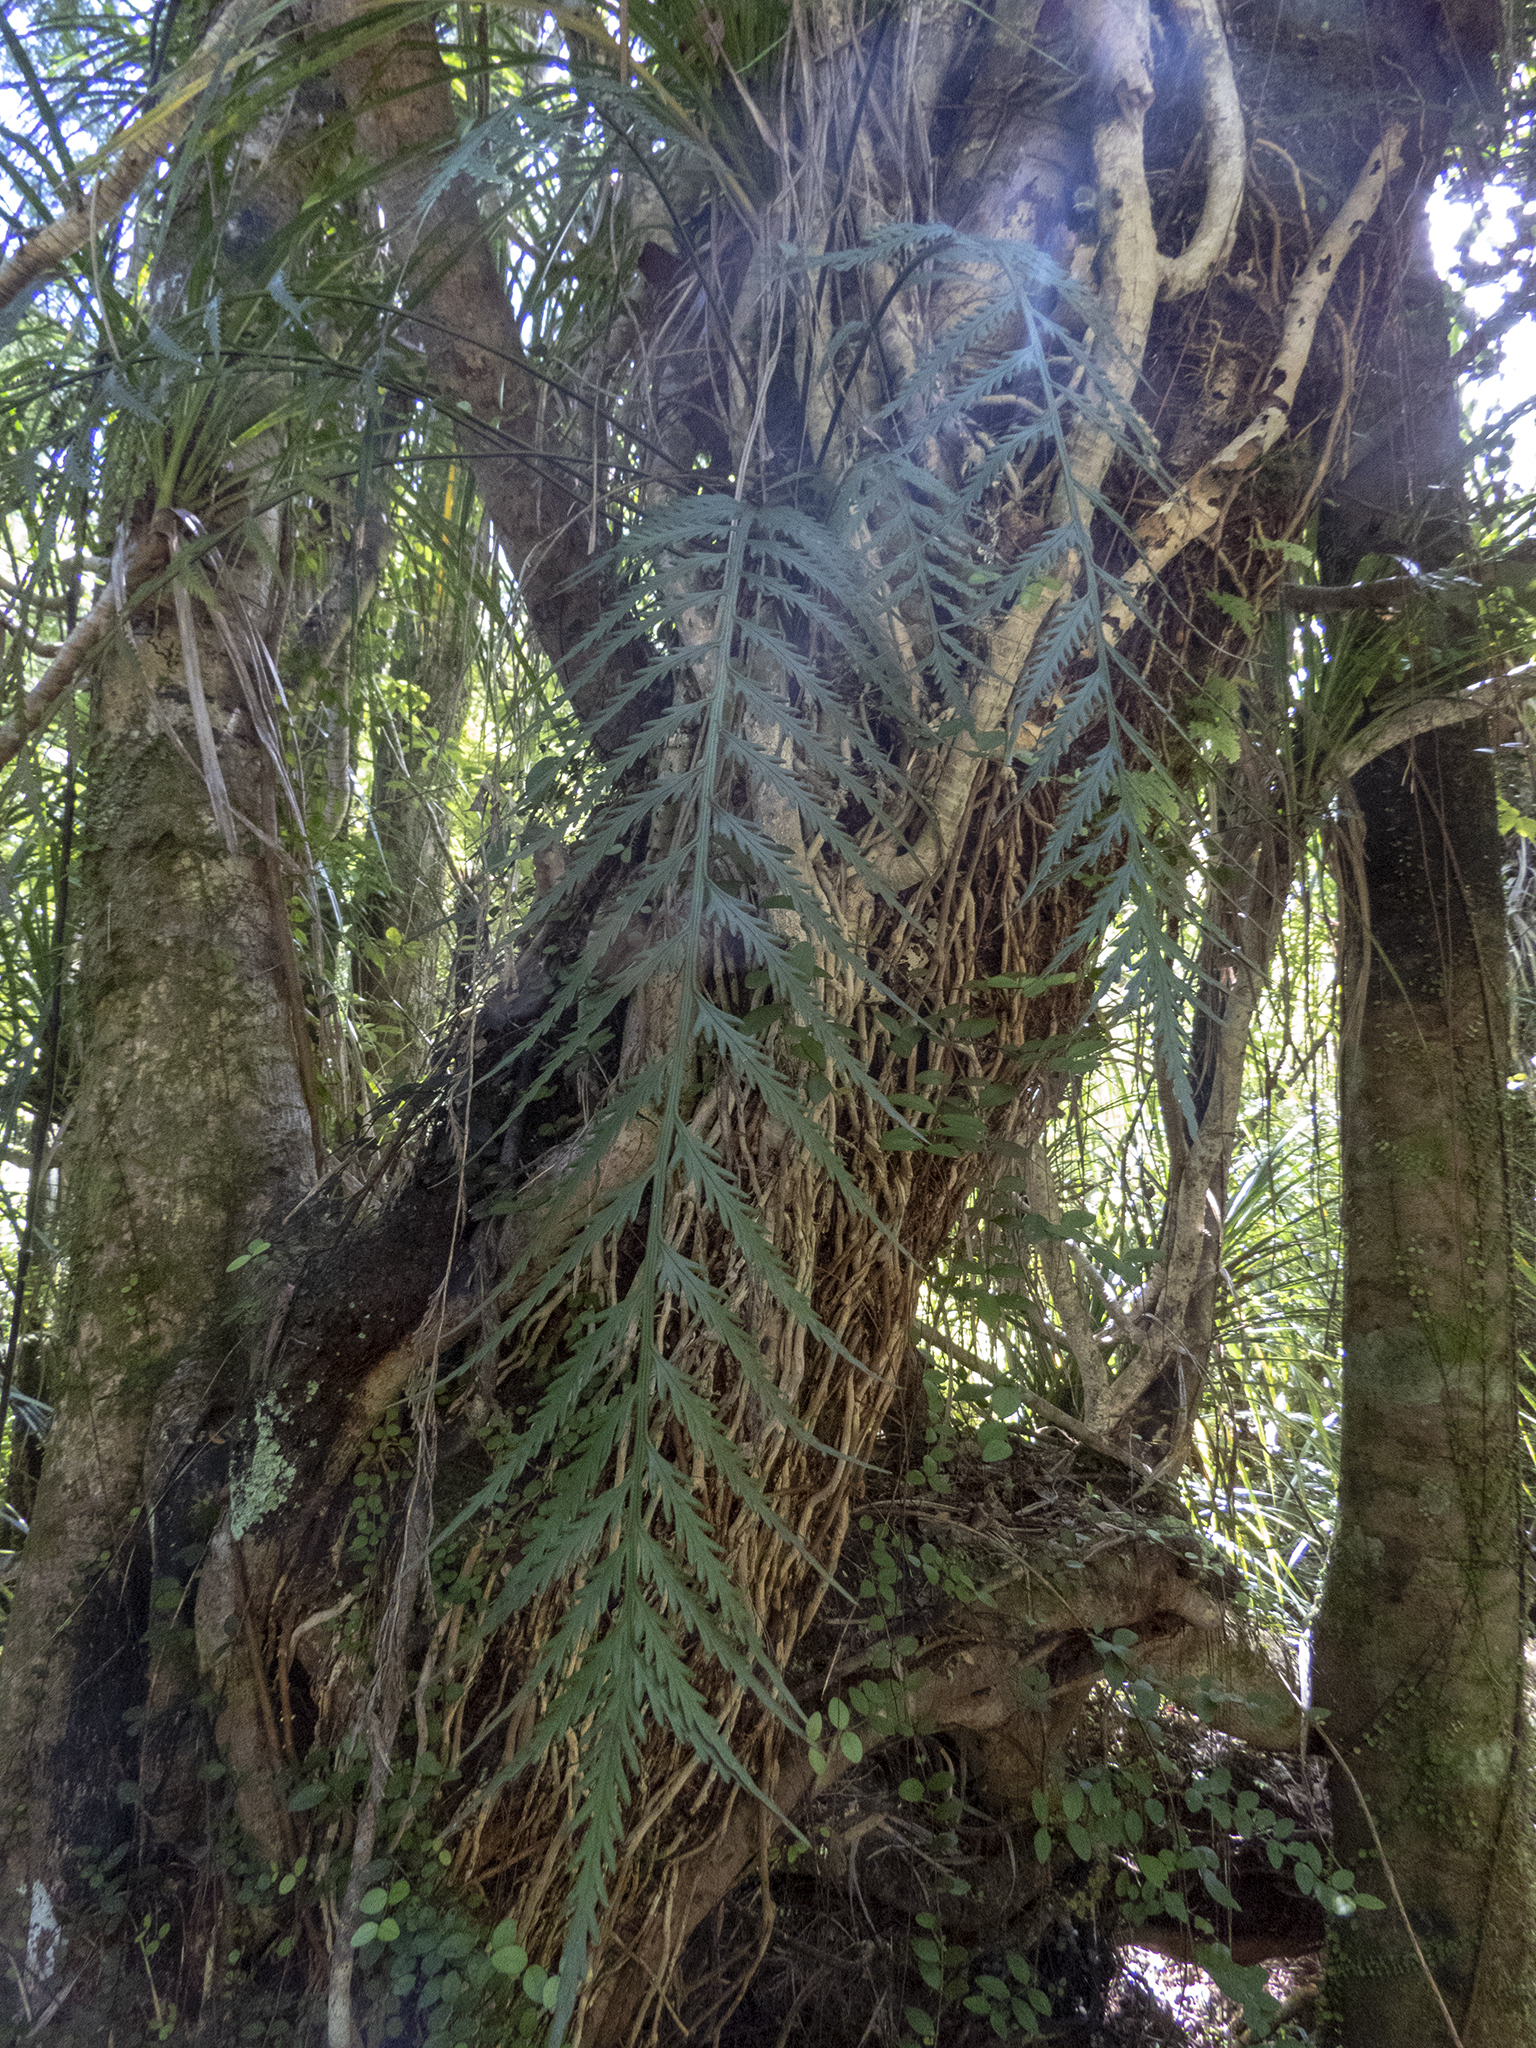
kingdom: Plantae
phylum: Tracheophyta
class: Polypodiopsida
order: Polypodiales
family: Aspleniaceae
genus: Asplenium
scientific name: Asplenium flaccidum
